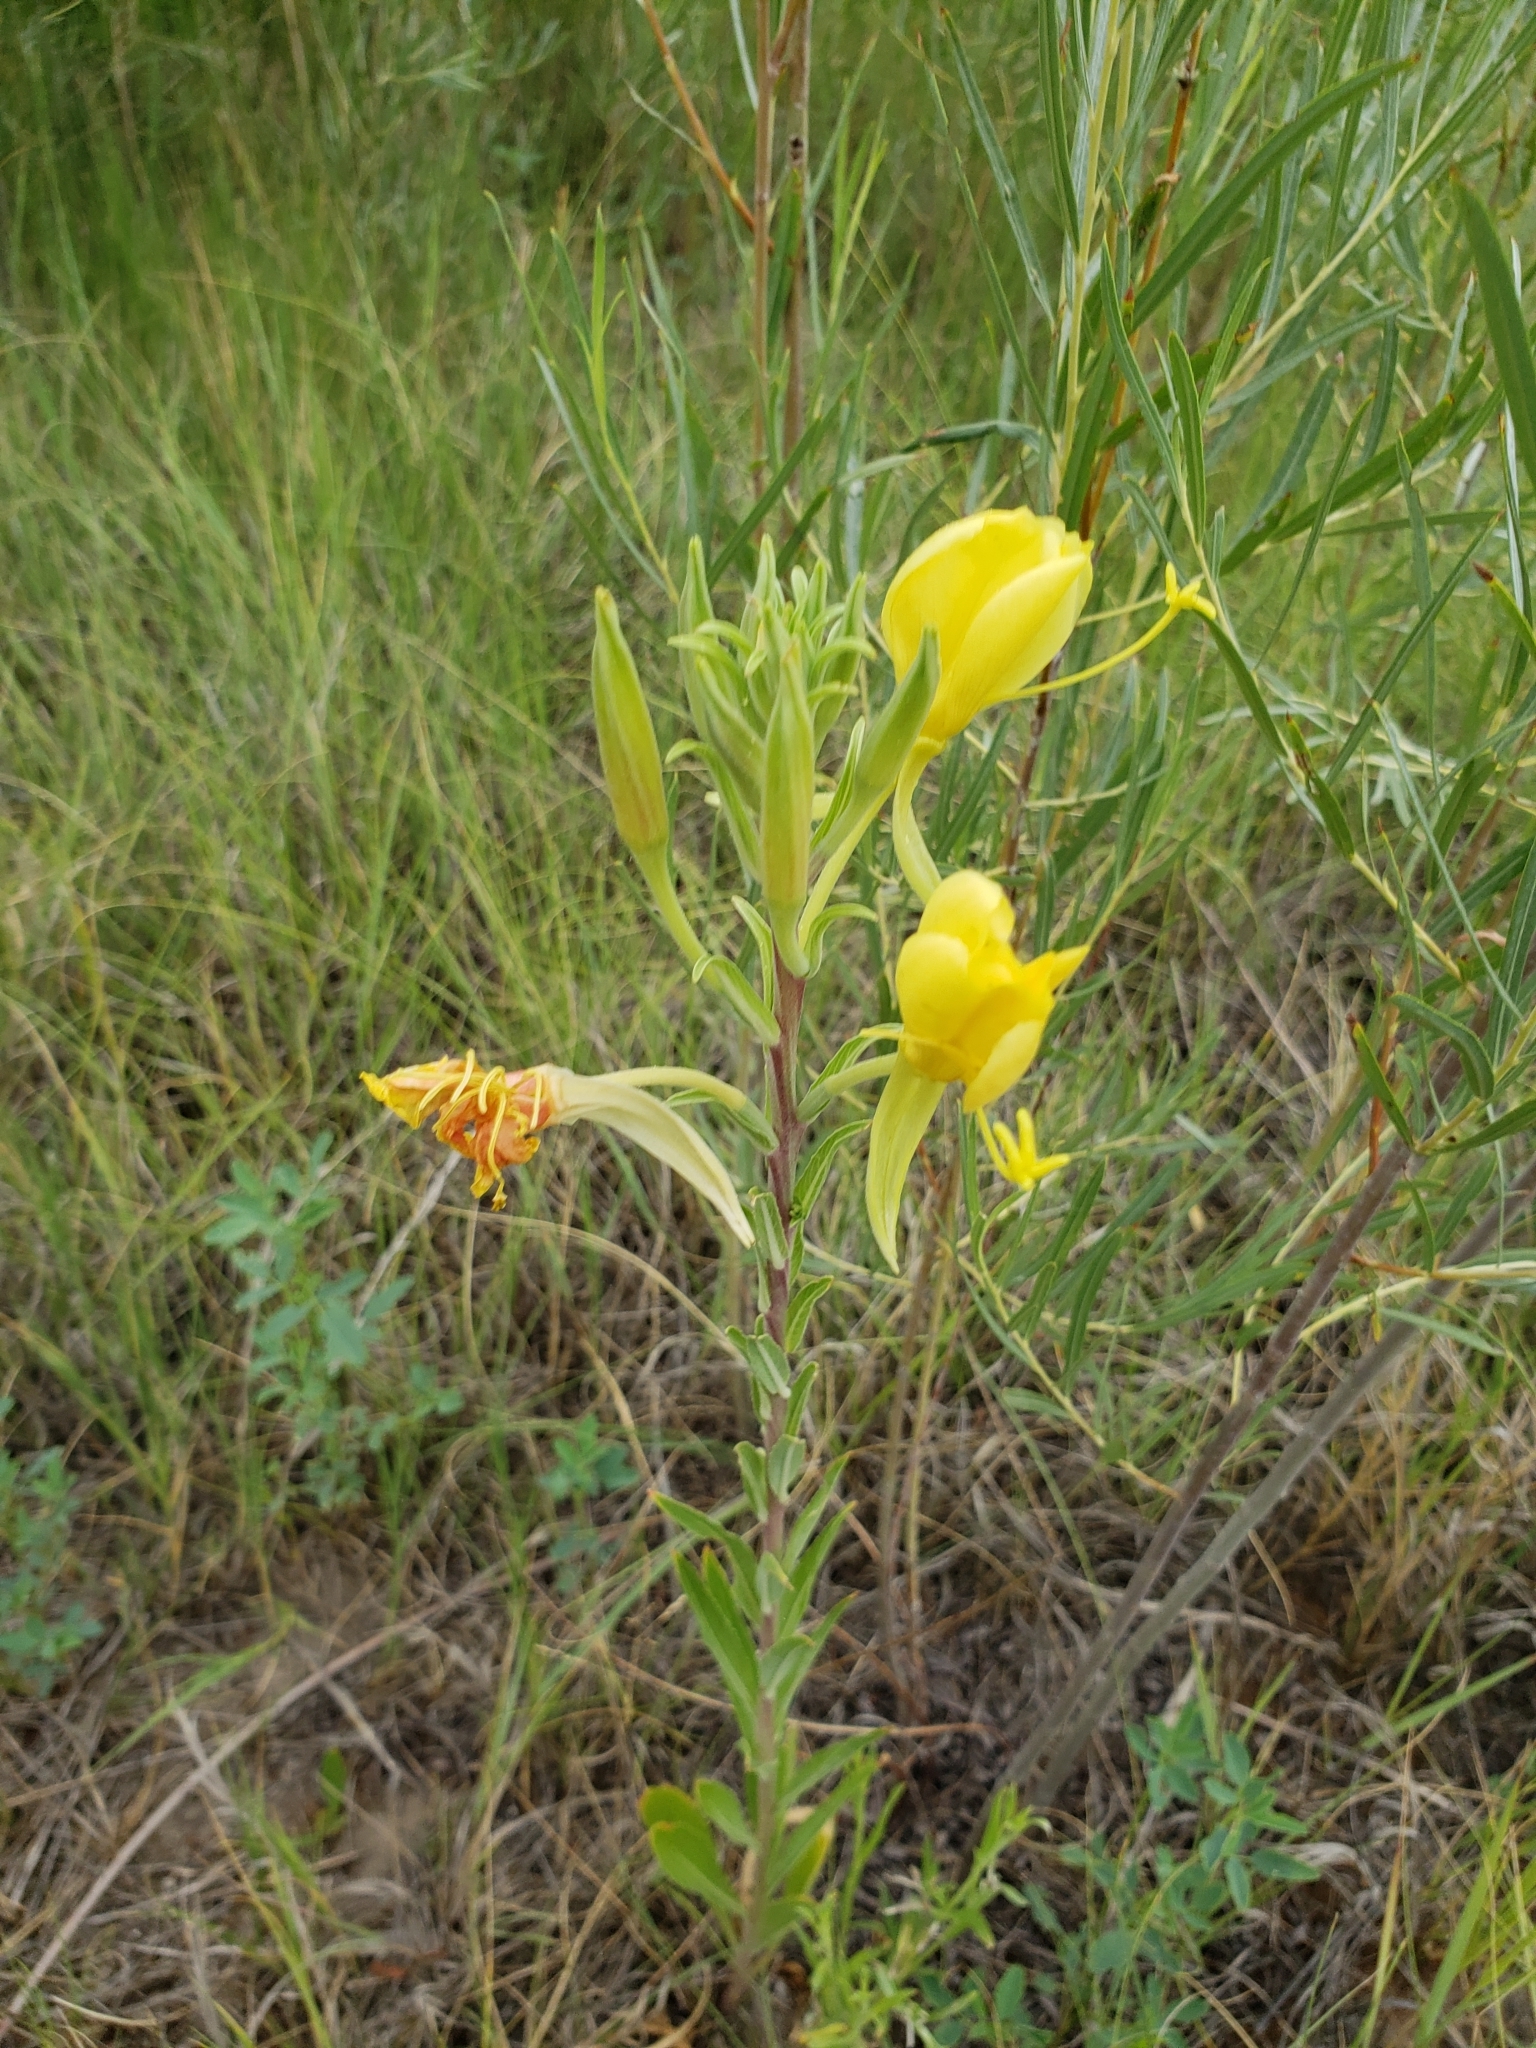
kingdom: Plantae
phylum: Tracheophyta
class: Magnoliopsida
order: Myrtales
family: Onagraceae
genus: Oenothera
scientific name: Oenothera elata
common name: Hooker's evening-primrose
